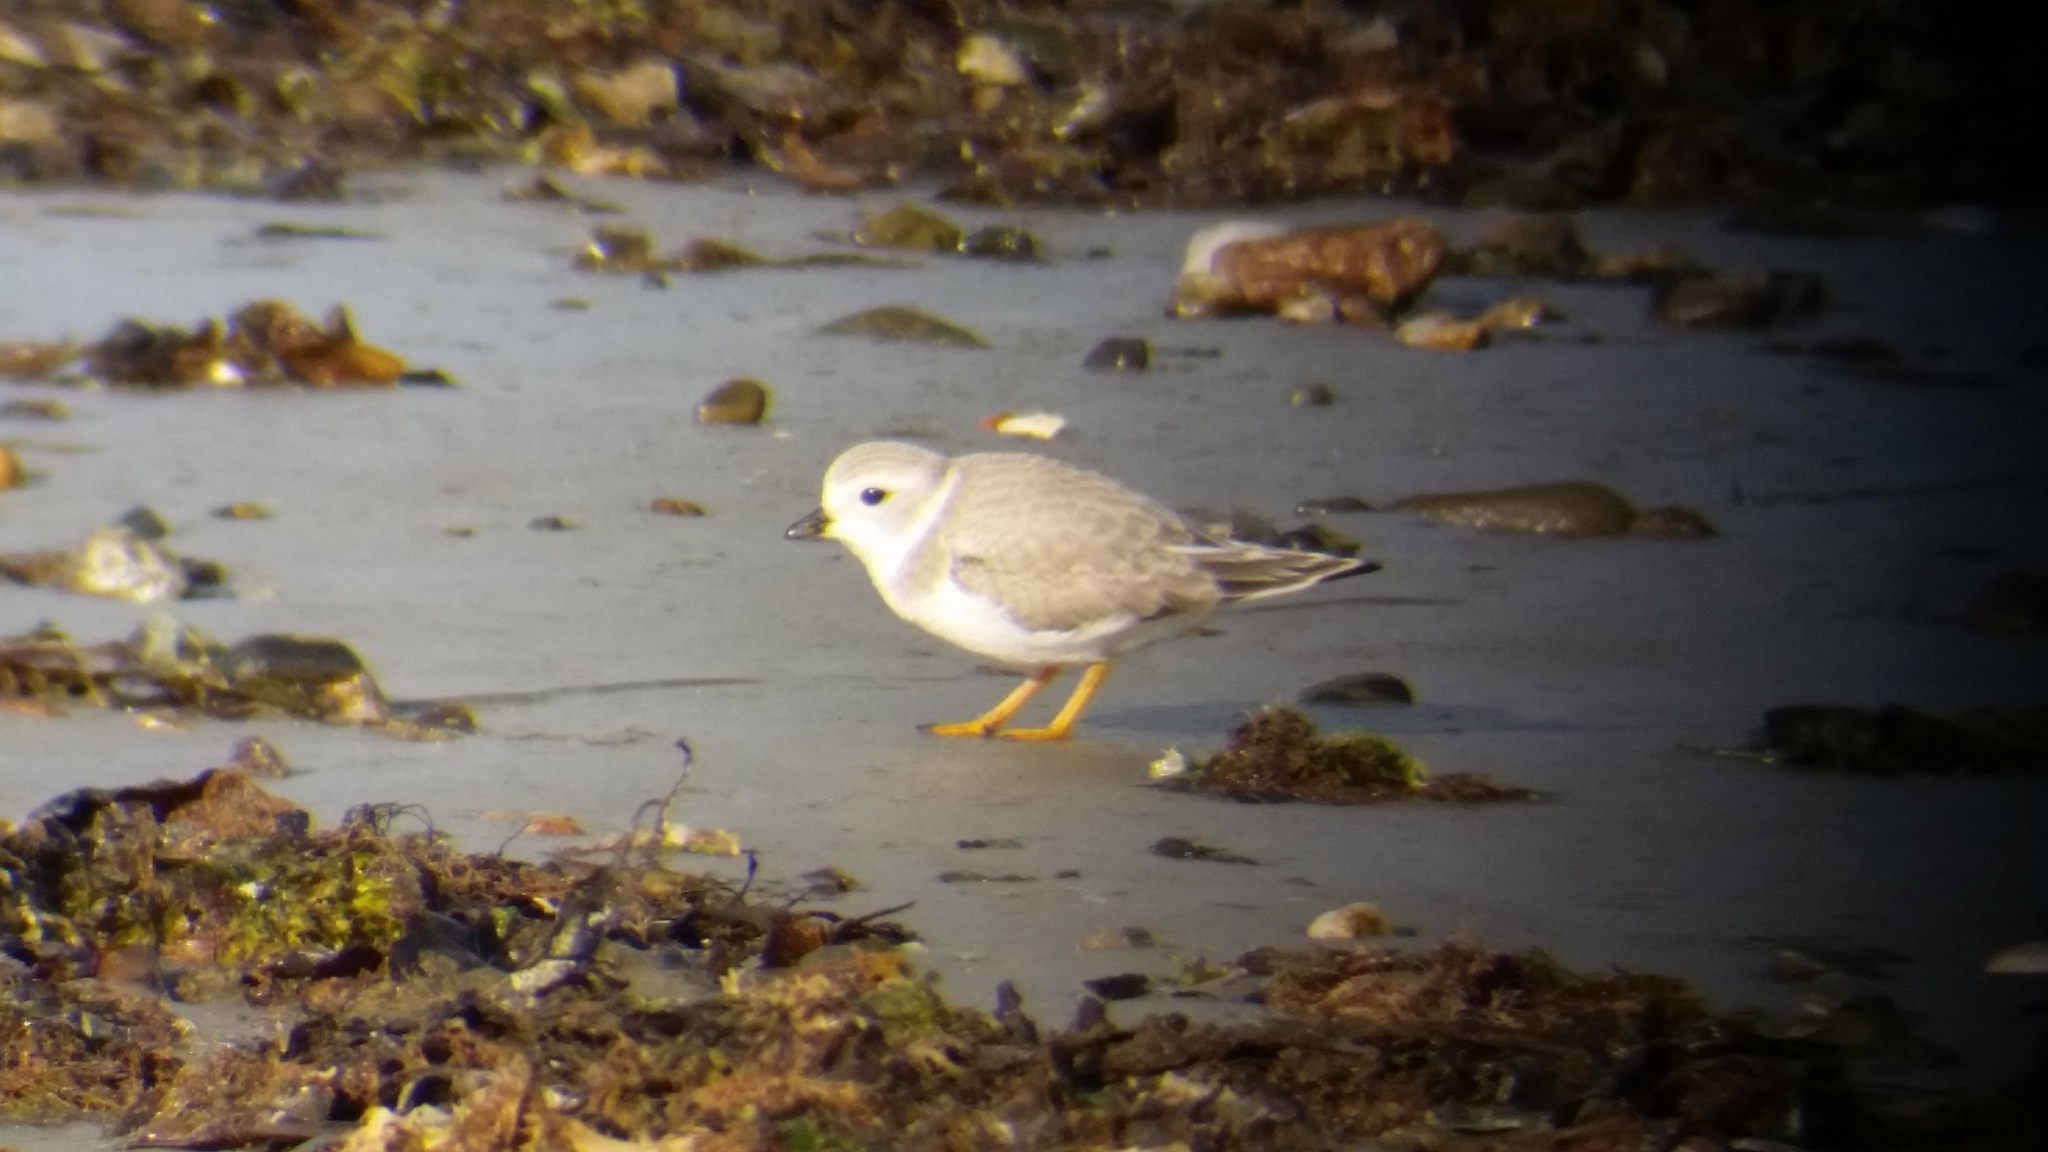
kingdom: Animalia
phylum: Chordata
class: Aves
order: Charadriiformes
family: Charadriidae
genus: Charadrius
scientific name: Charadrius melodus
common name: Piping plover
